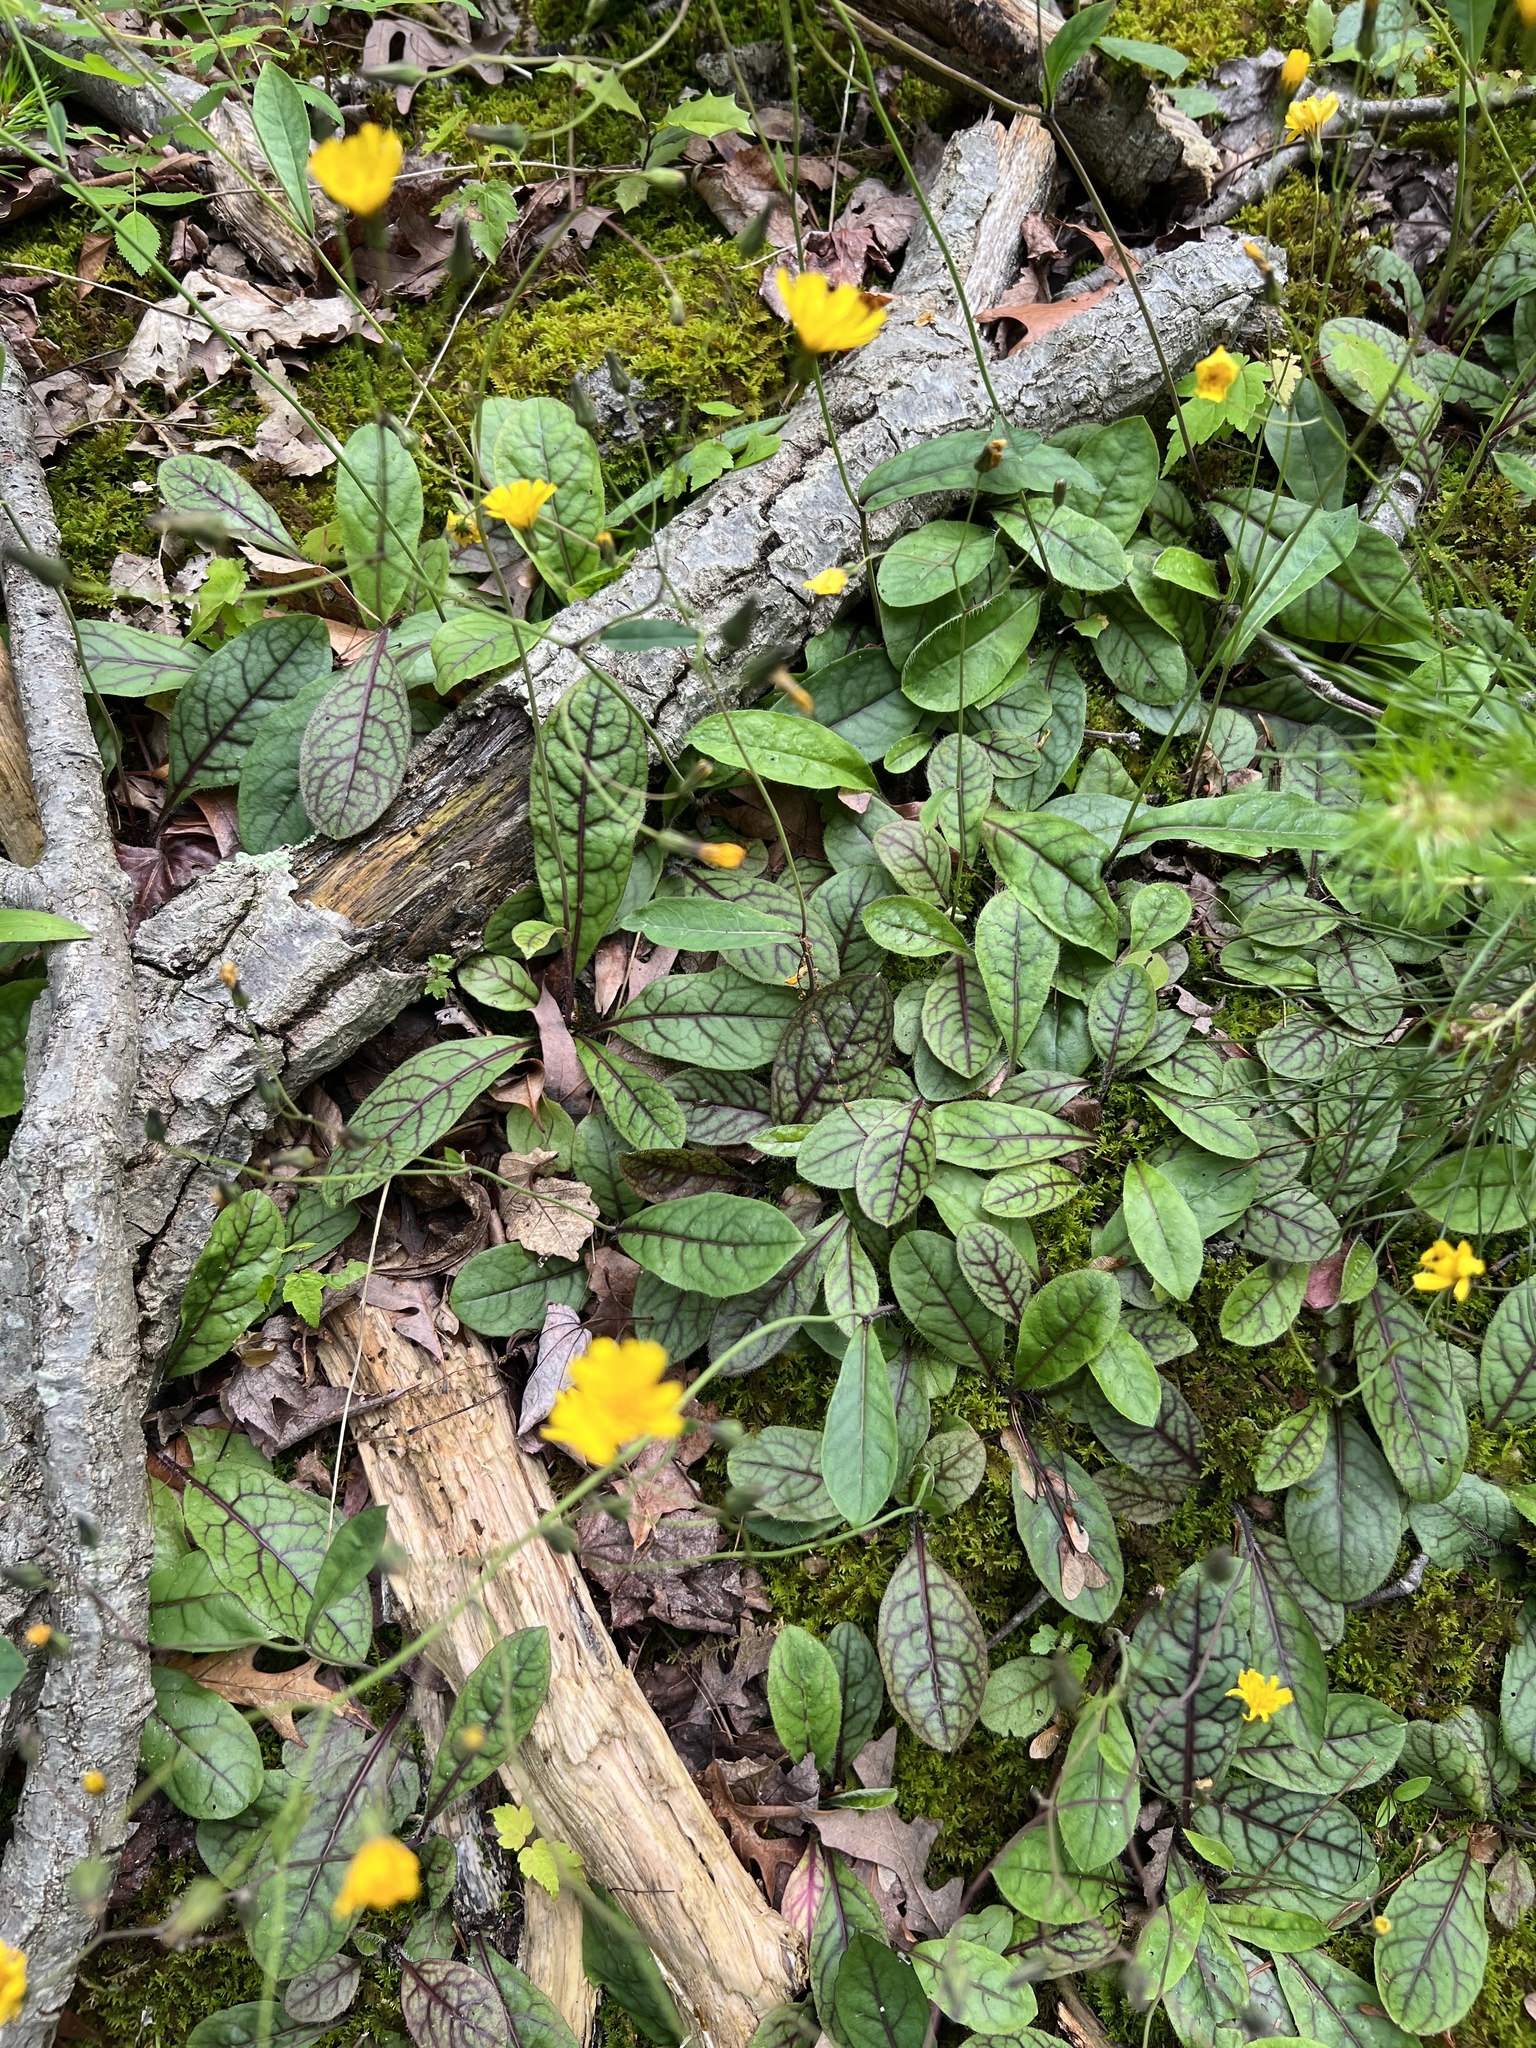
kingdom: Plantae
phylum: Tracheophyta
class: Magnoliopsida
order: Asterales
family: Asteraceae
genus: Hieracium
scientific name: Hieracium venosum
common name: Rattlesnake hawkweed
